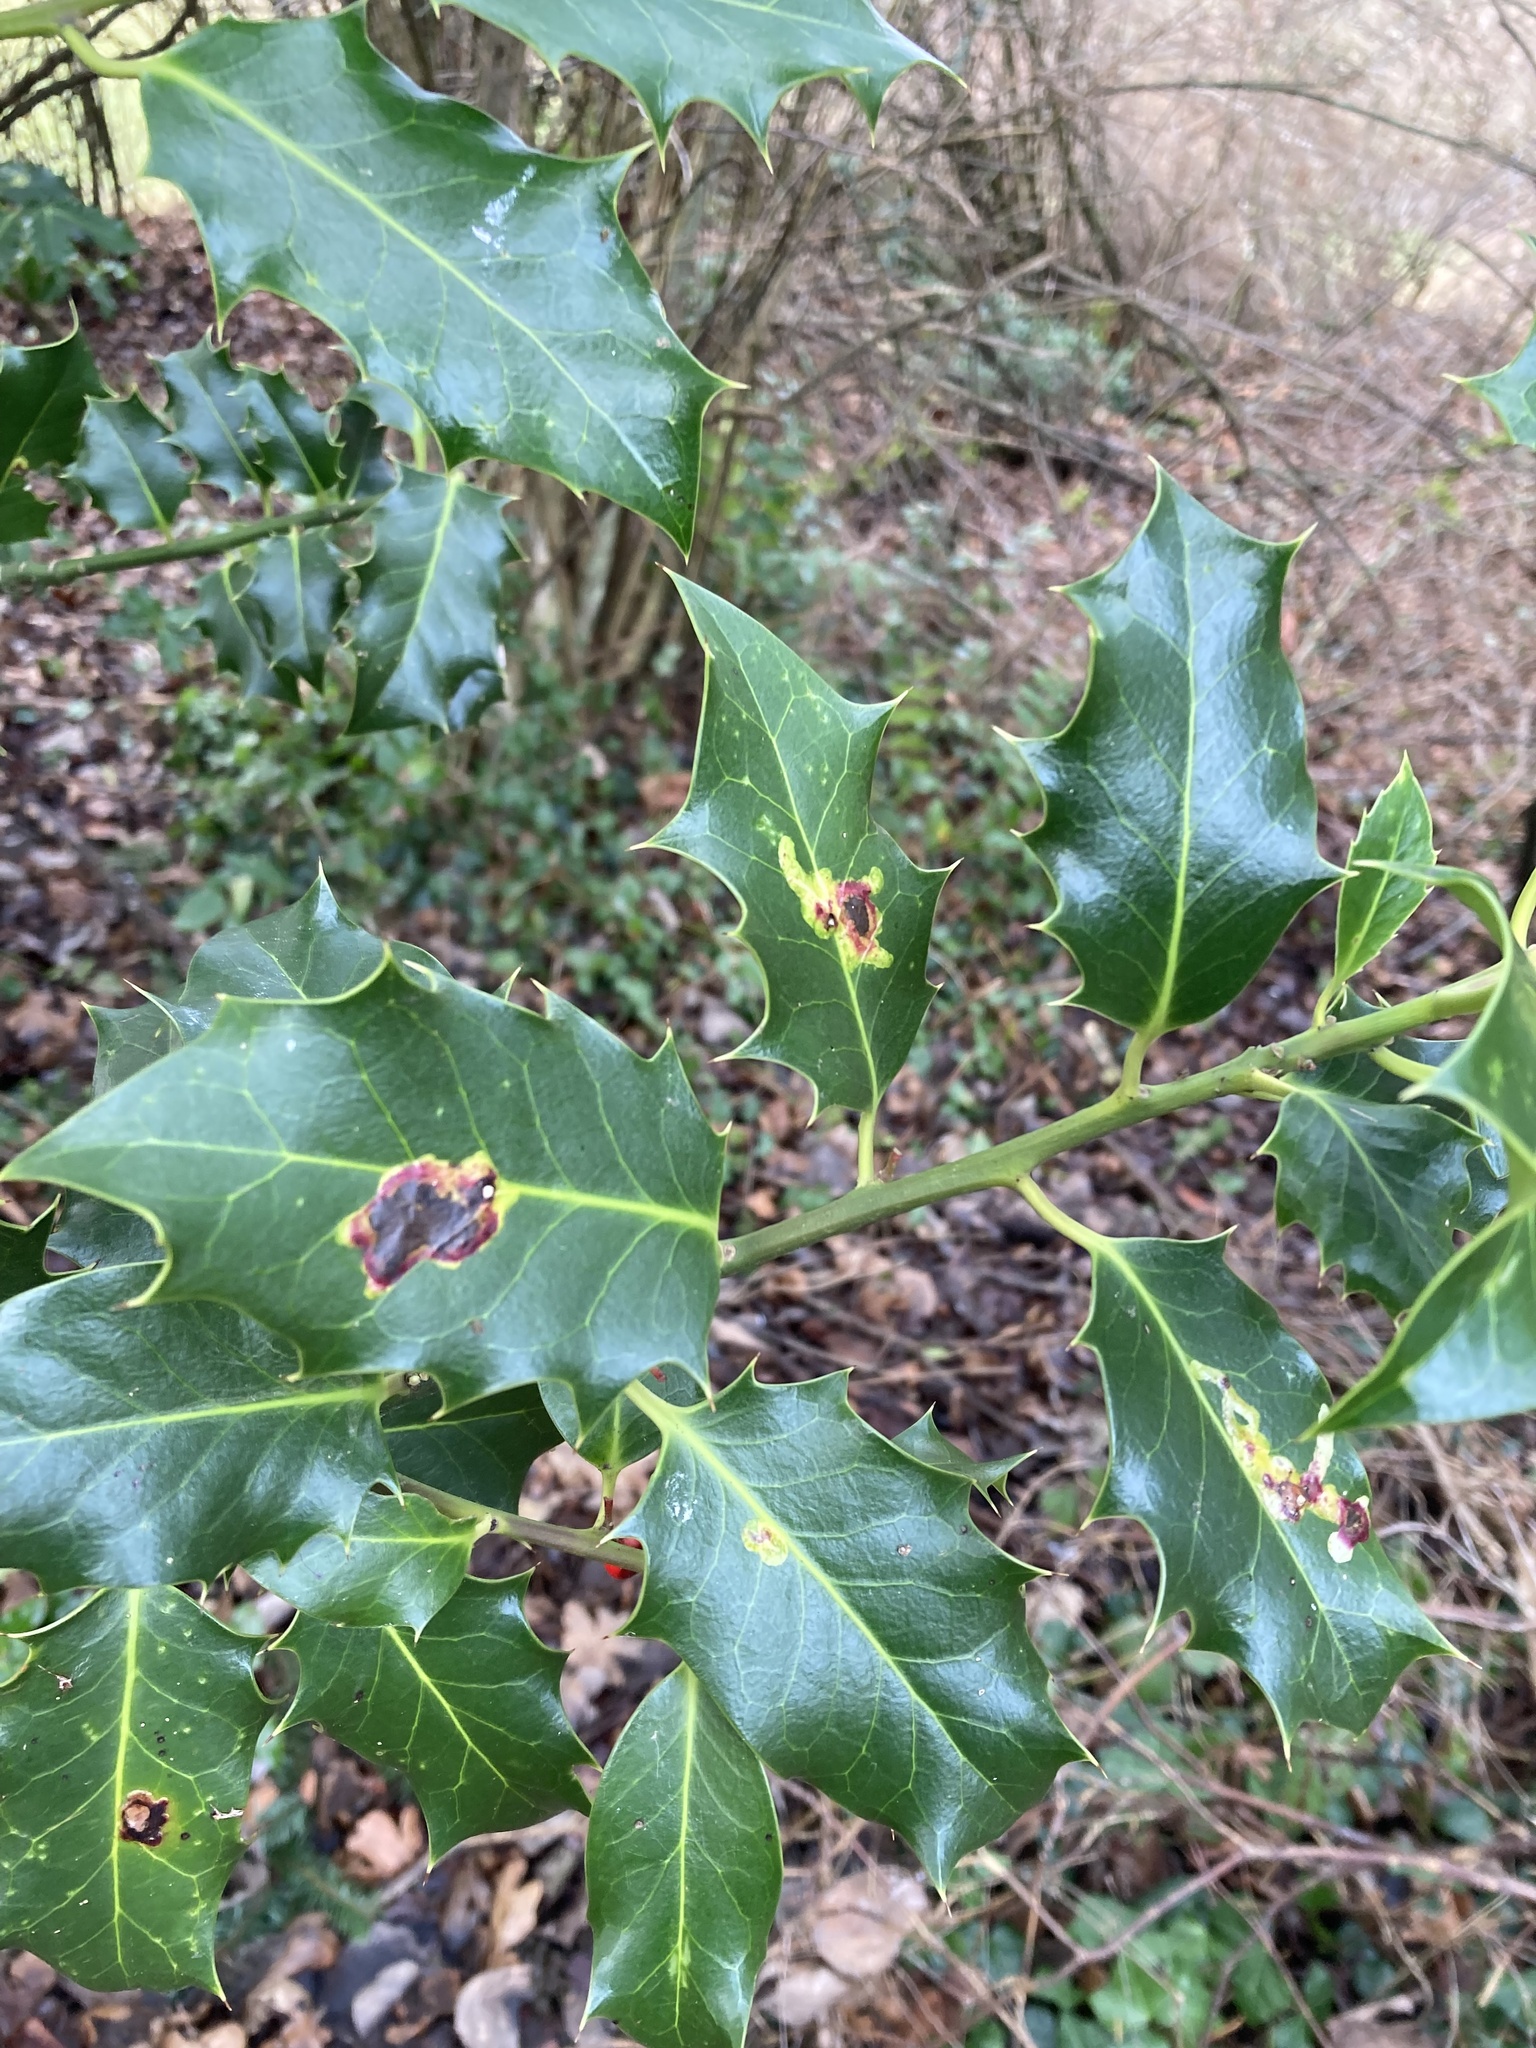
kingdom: Animalia
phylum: Arthropoda
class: Insecta
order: Diptera
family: Agromyzidae
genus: Phytomyza
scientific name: Phytomyza ilicis
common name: Holly leafminer
